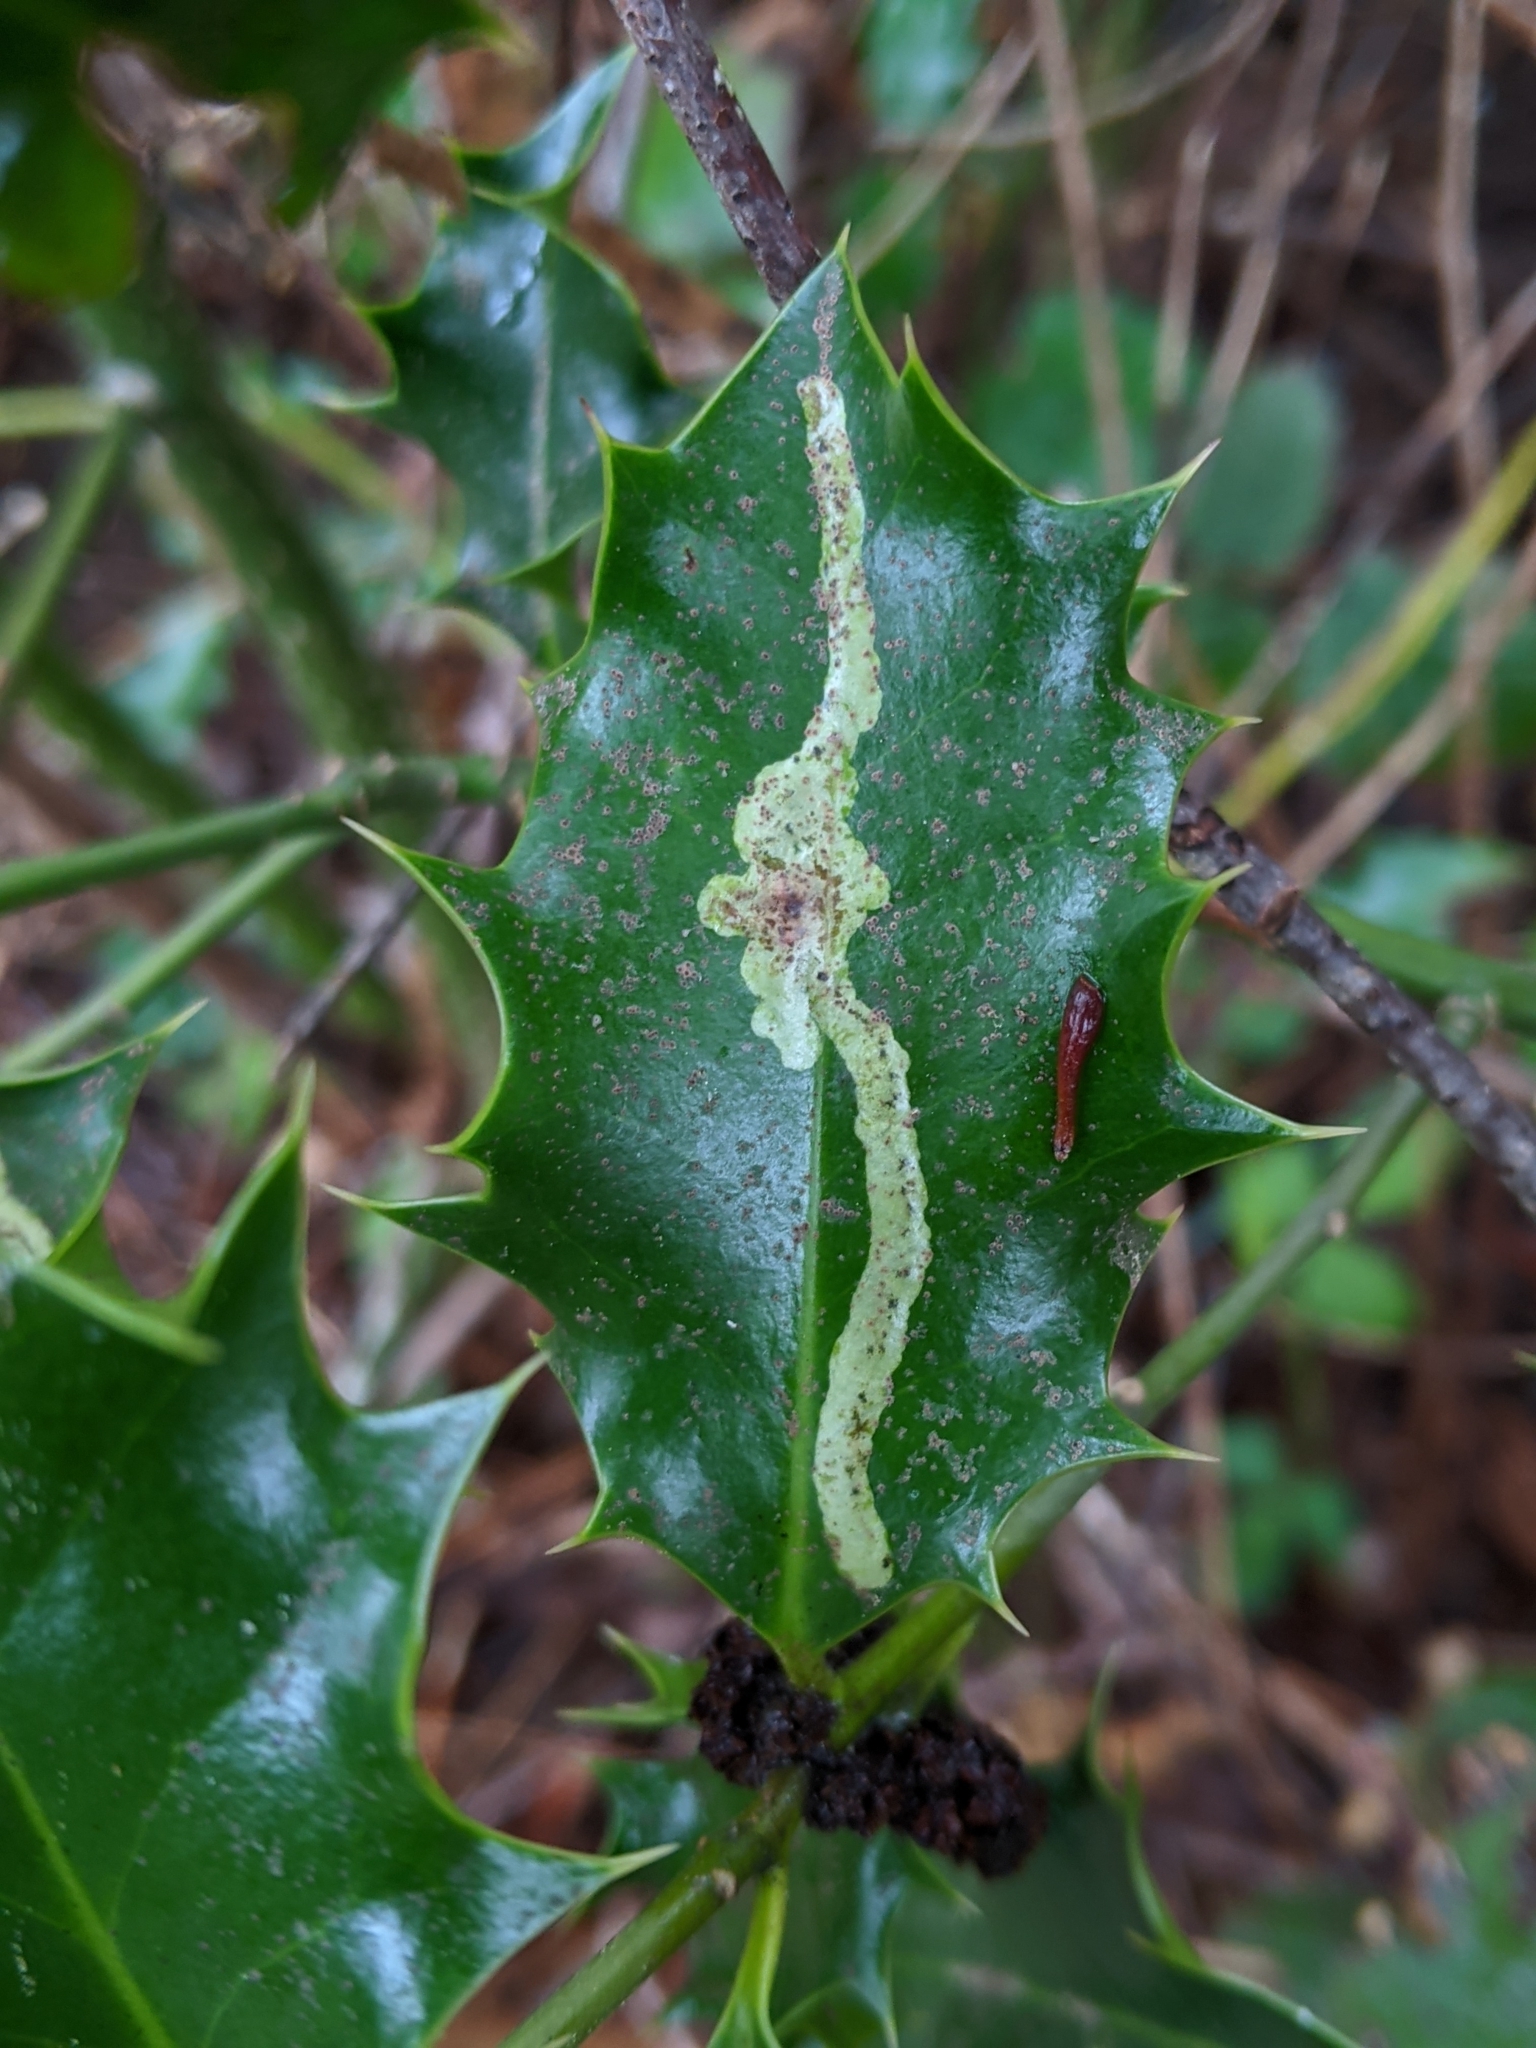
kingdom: Animalia
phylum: Arthropoda
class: Insecta
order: Diptera
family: Agromyzidae
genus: Phytomyza
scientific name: Phytomyza ilicis
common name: Holly leafminer
